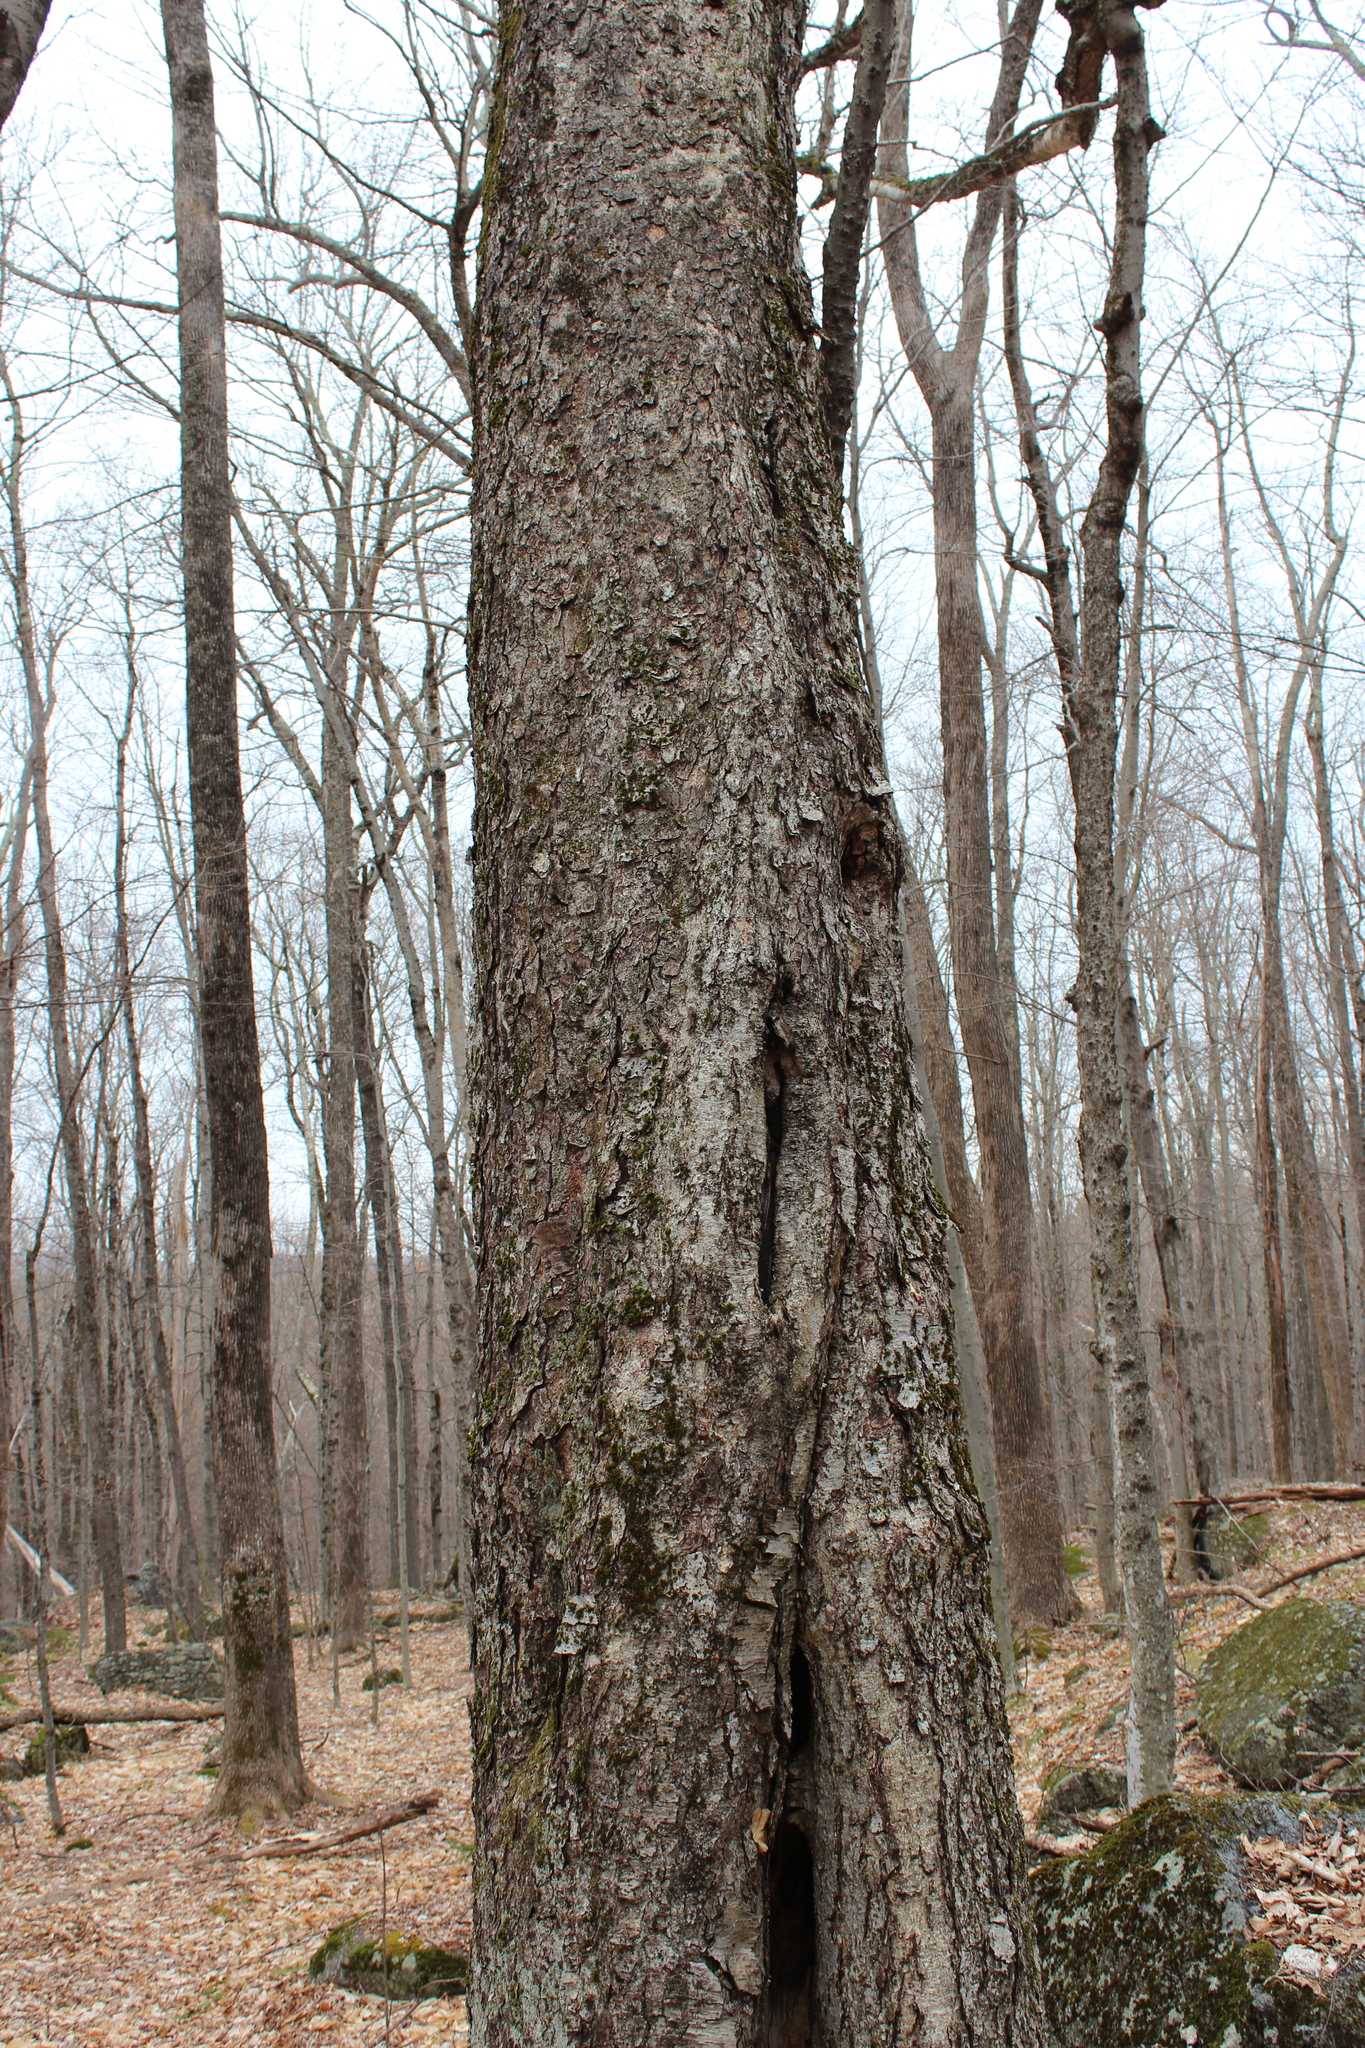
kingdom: Plantae
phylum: Tracheophyta
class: Magnoliopsida
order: Fagales
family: Betulaceae
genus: Betula
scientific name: Betula alleghaniensis
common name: Yellow birch
